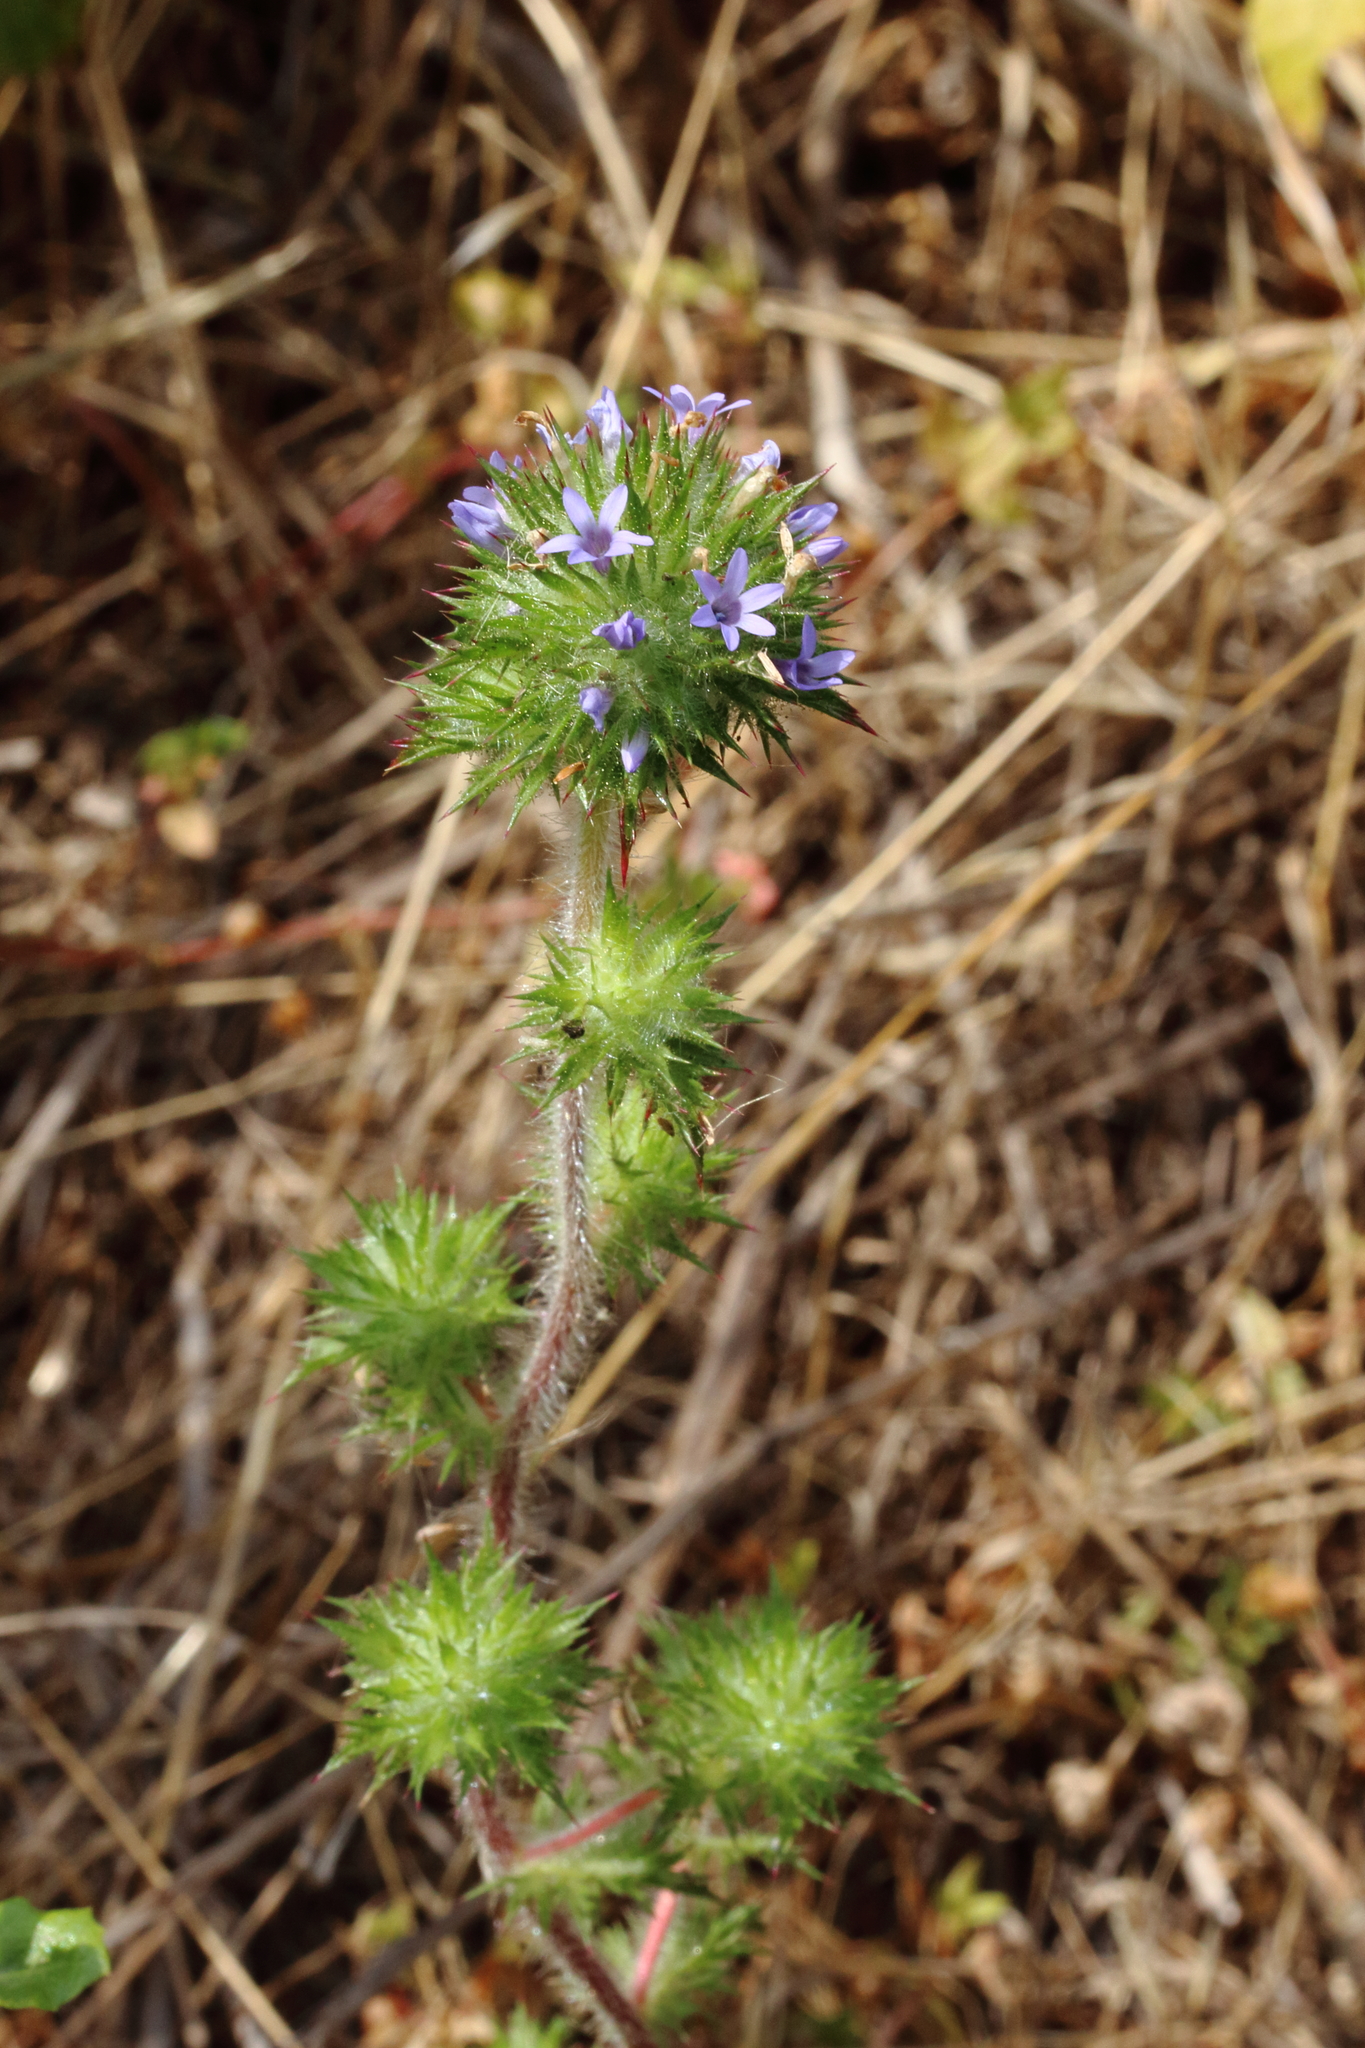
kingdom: Plantae
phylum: Tracheophyta
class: Magnoliopsida
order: Ericales
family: Polemoniaceae
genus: Navarretia
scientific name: Navarretia squarrosa
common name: Skunkweed
